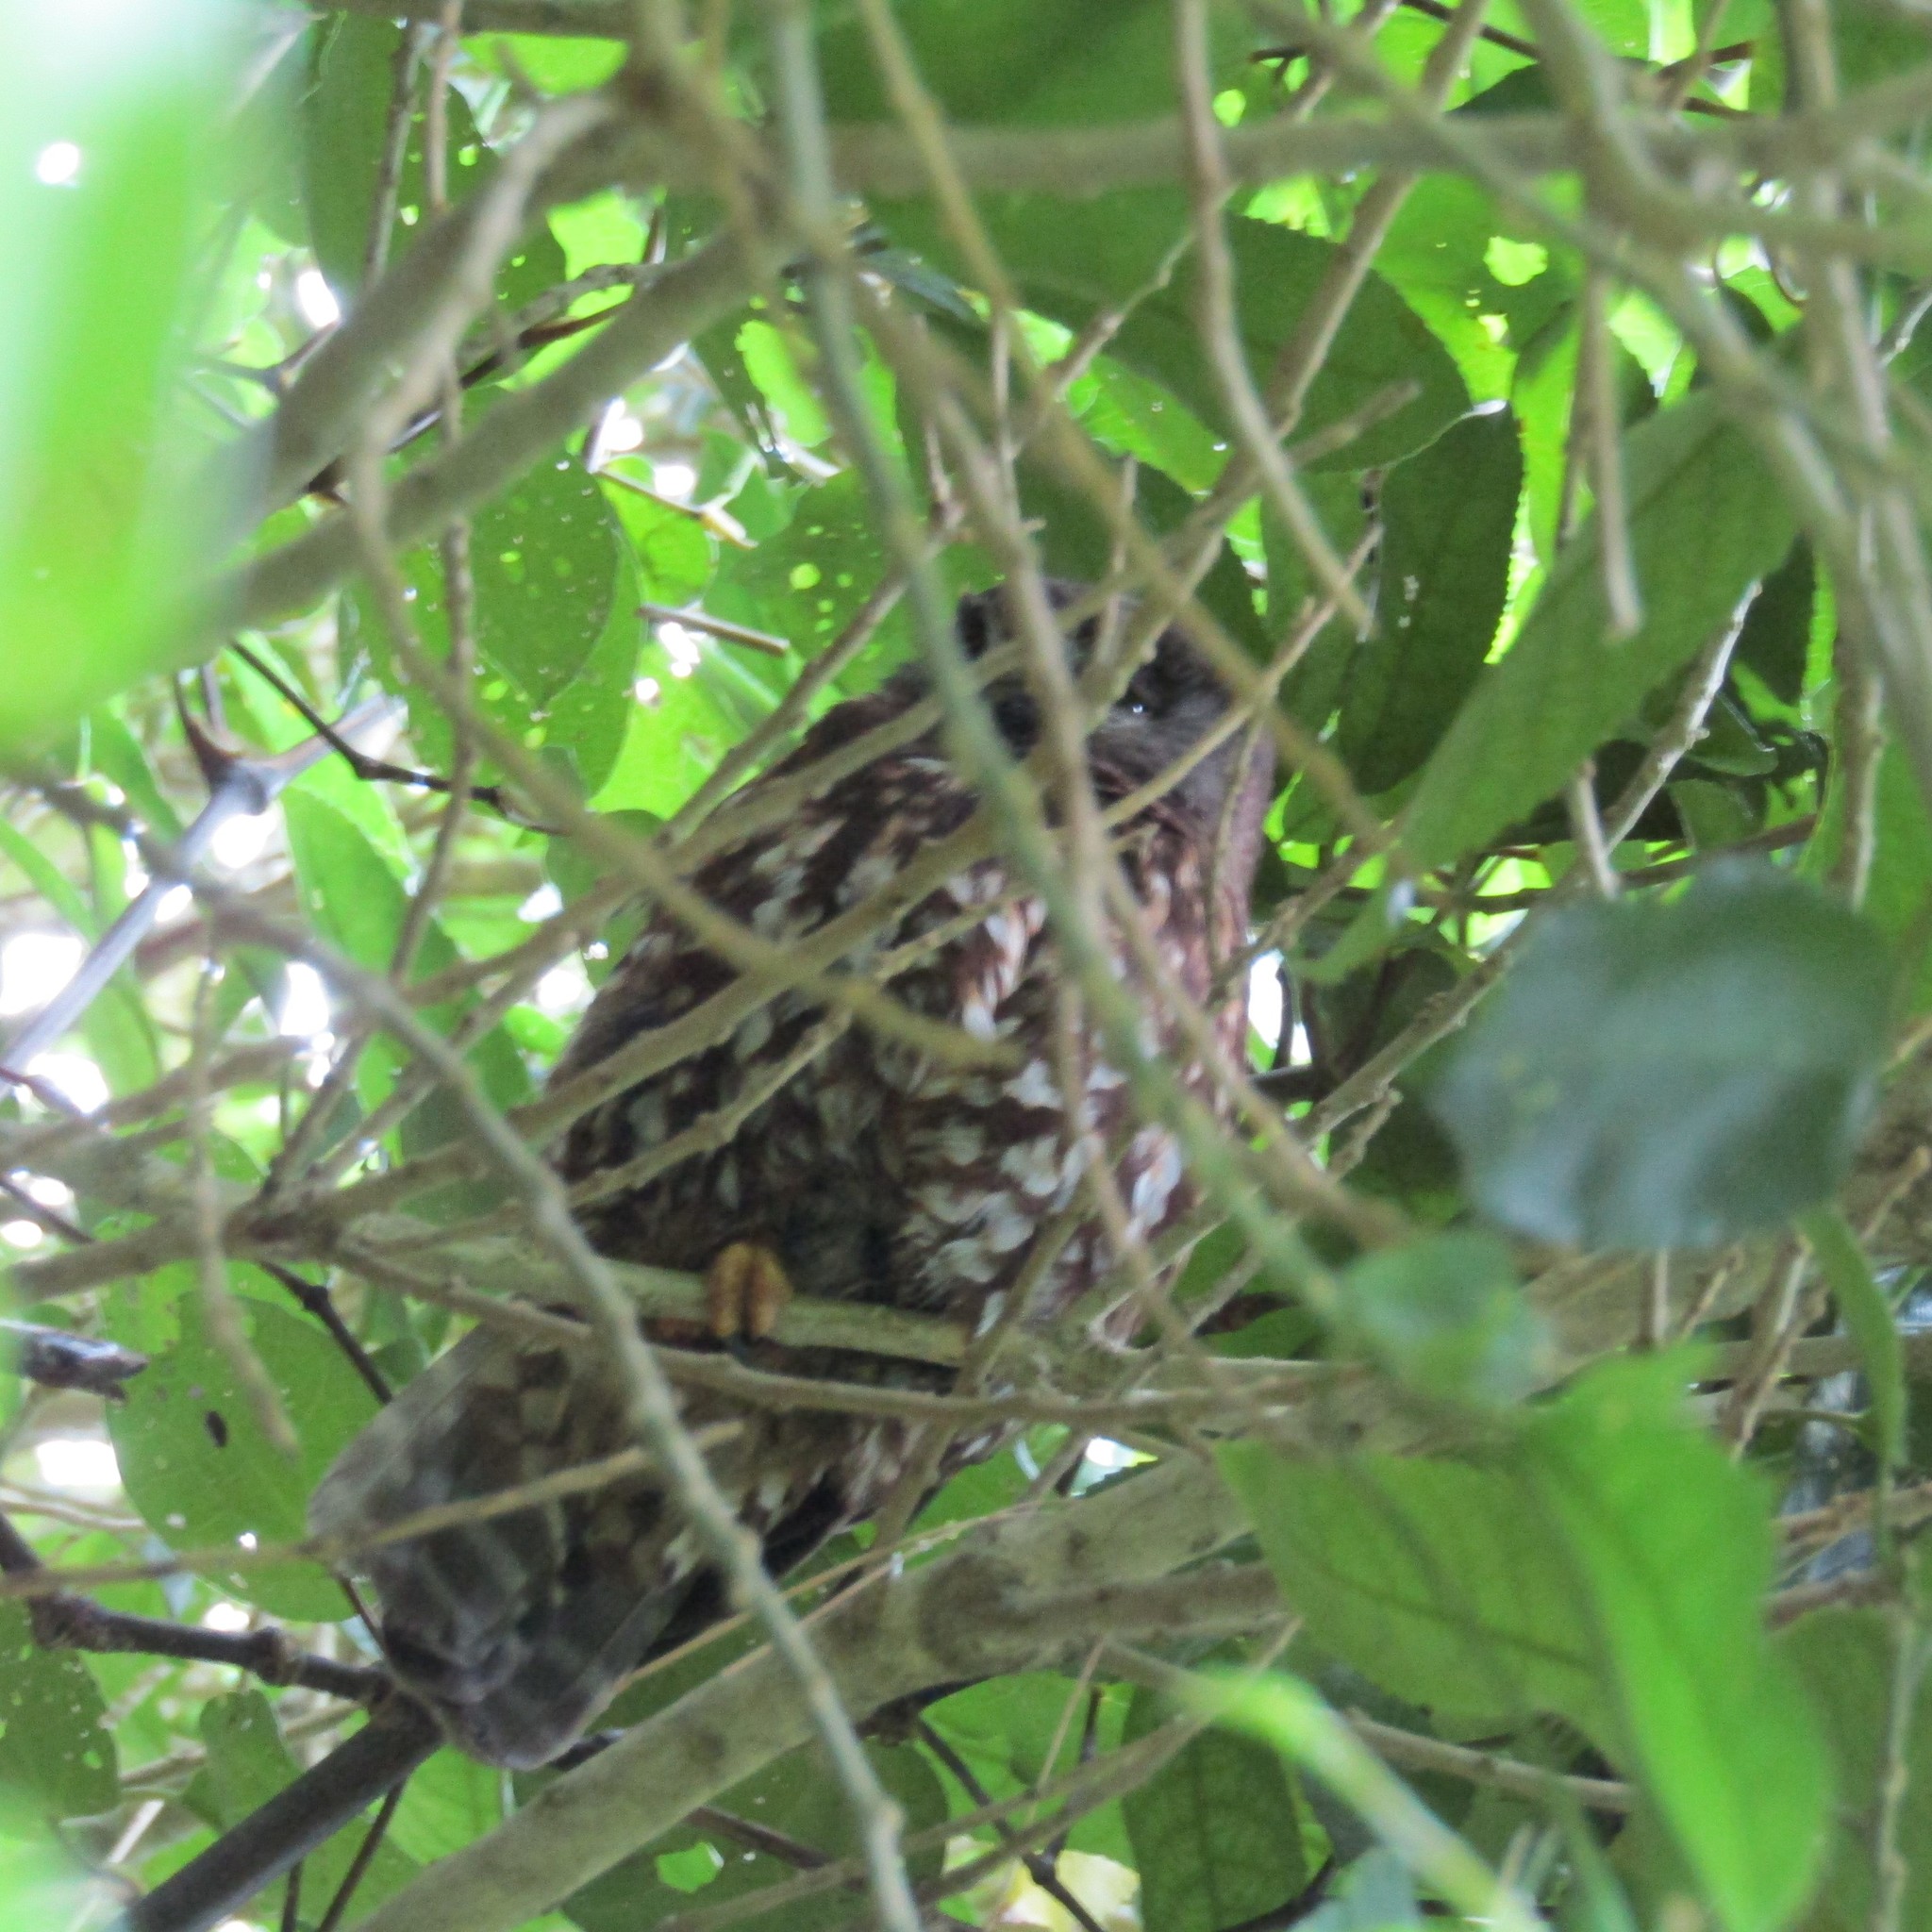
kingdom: Animalia
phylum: Chordata
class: Aves
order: Strigiformes
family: Strigidae
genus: Ninox
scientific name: Ninox novaeseelandiae
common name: Morepork
